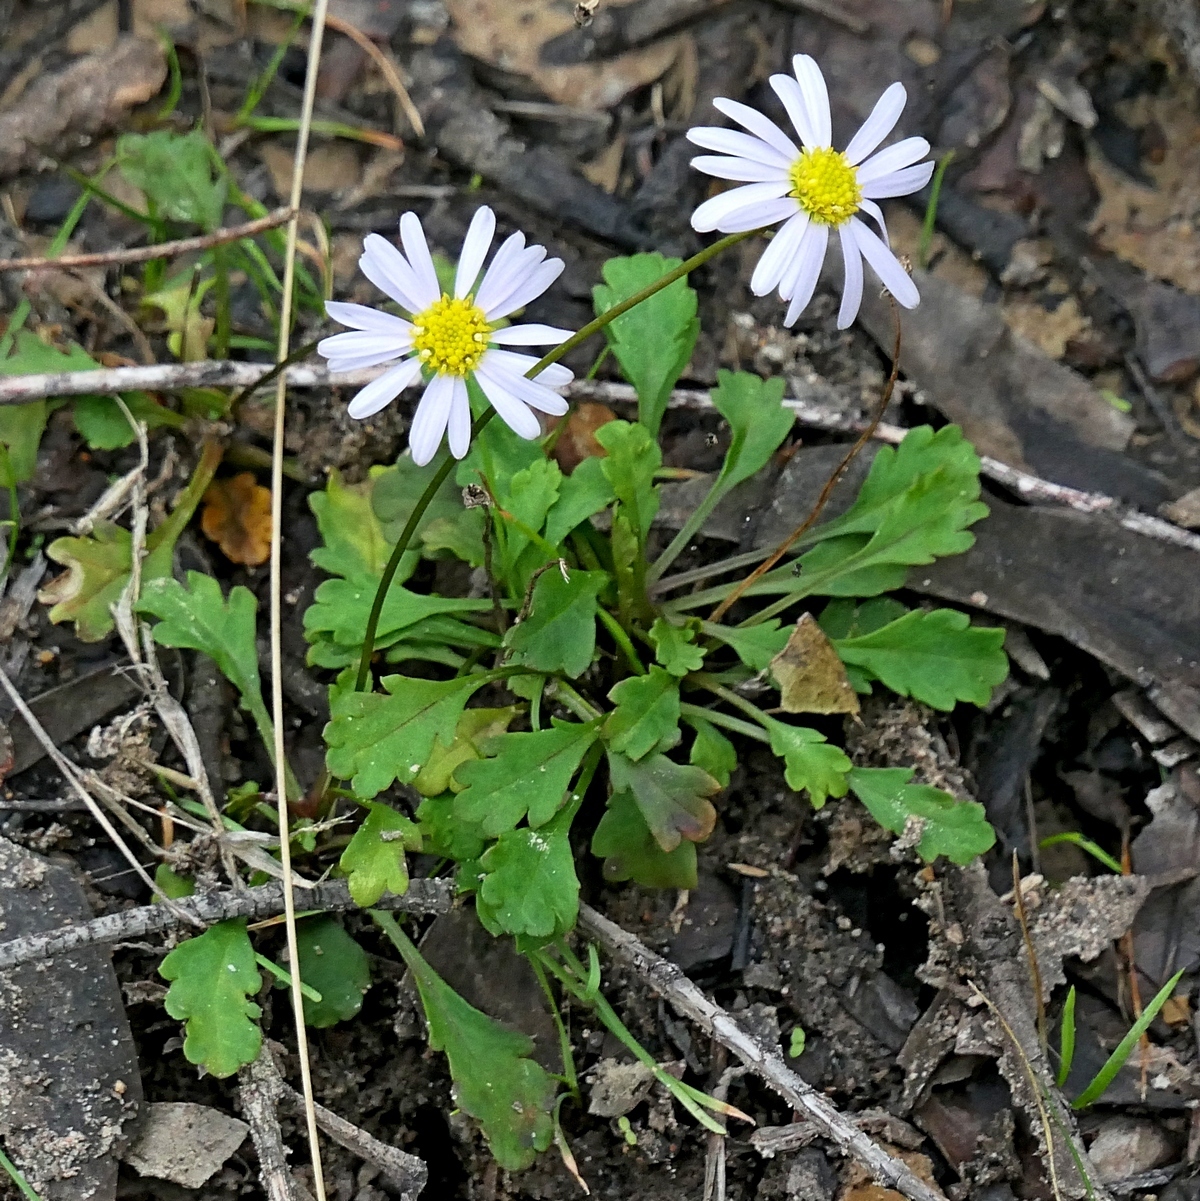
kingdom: Plantae
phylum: Tracheophyta
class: Magnoliopsida
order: Asterales
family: Asteraceae
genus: Brachyscome
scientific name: Brachyscome salkiniae
